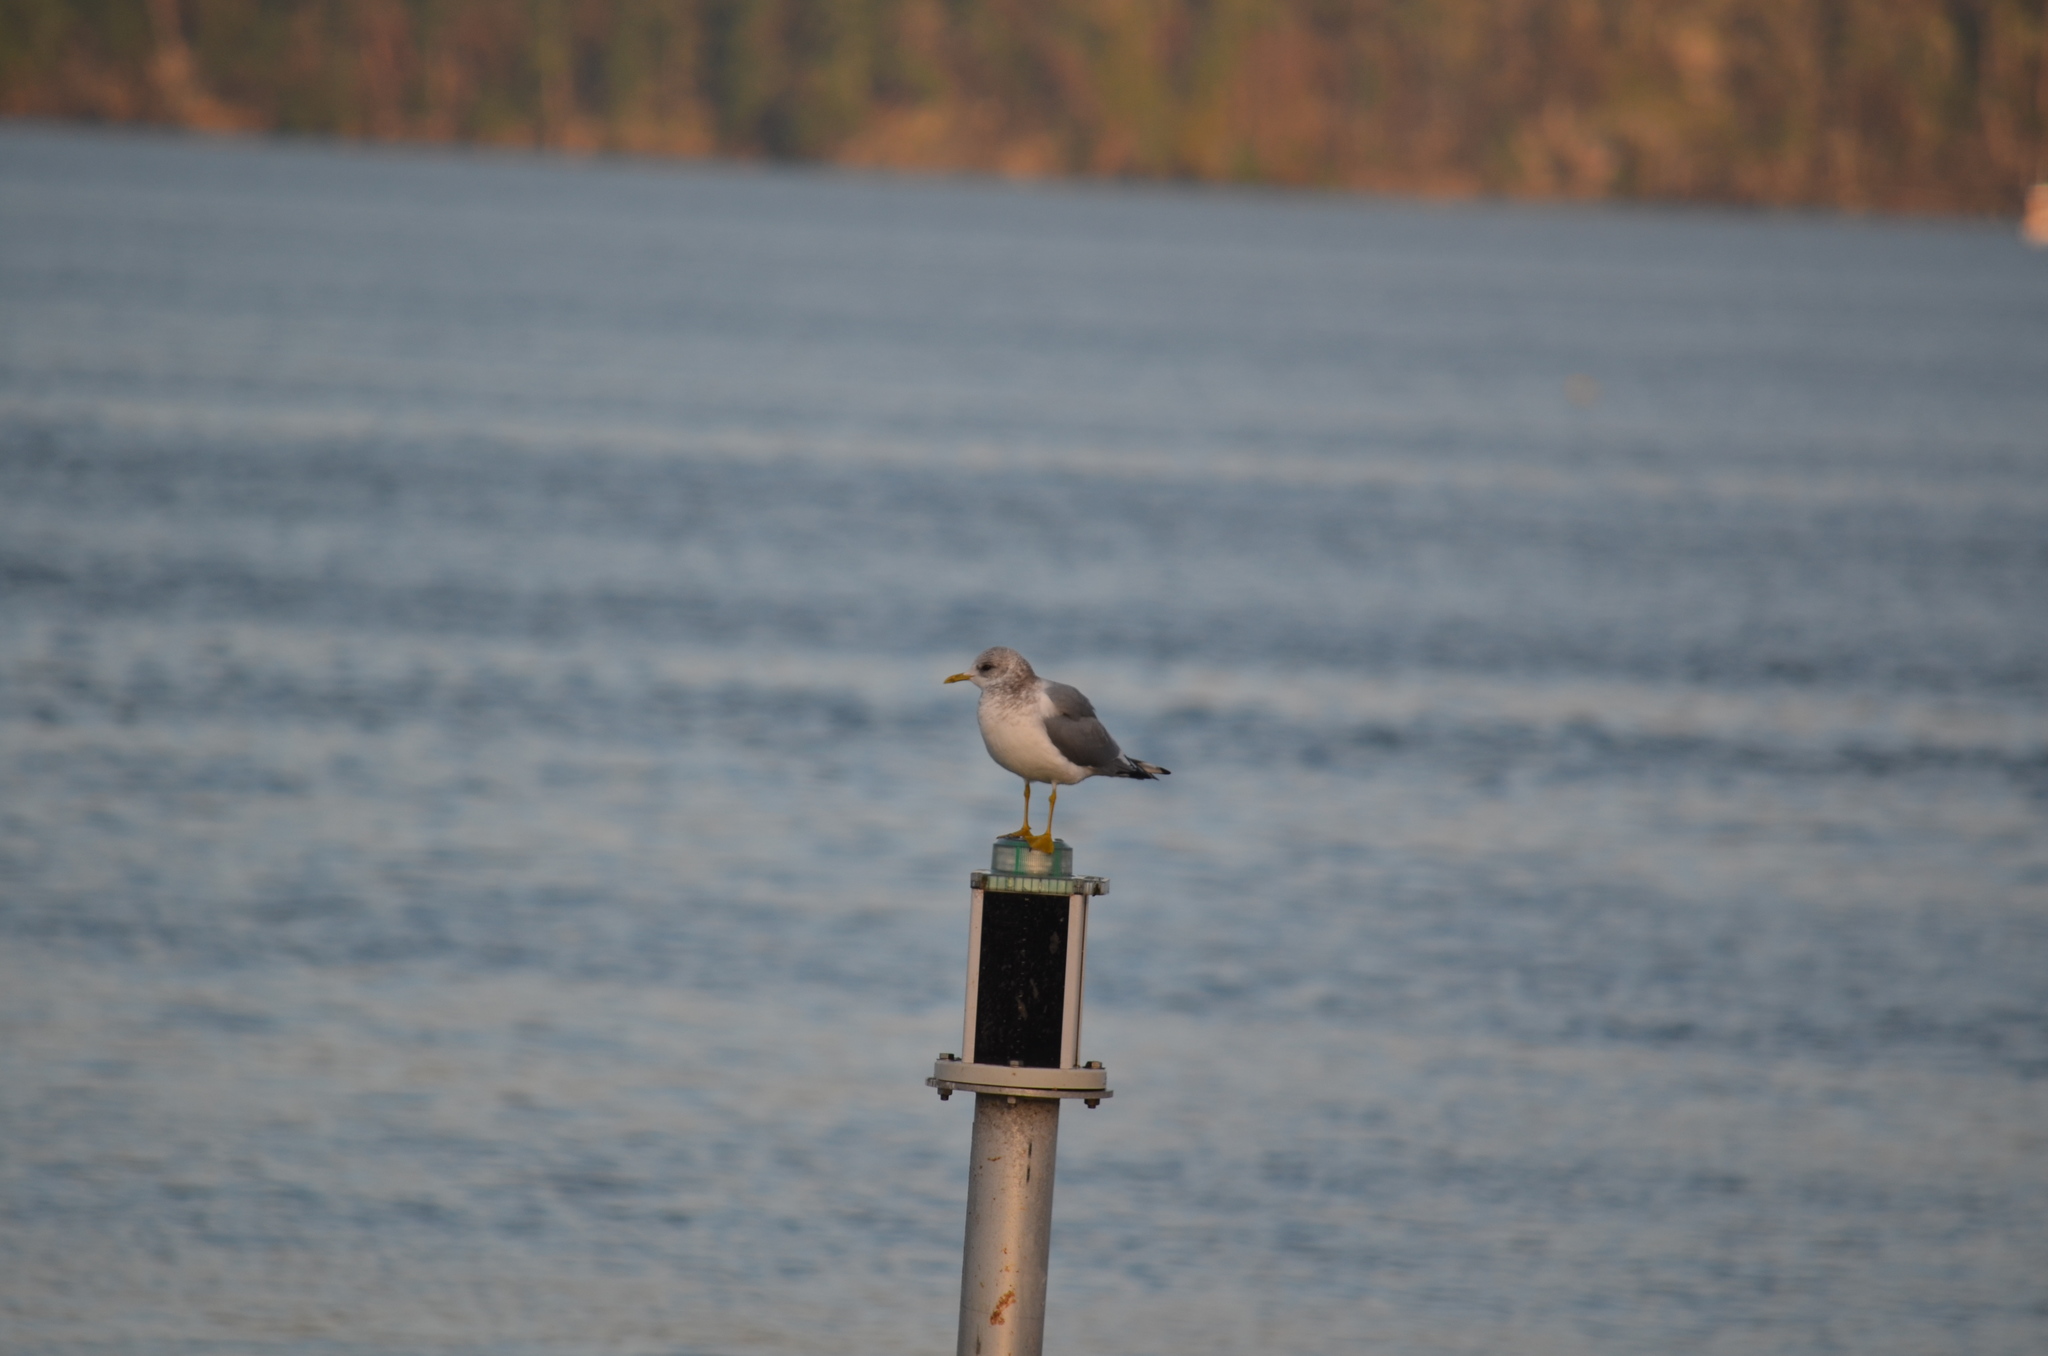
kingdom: Animalia
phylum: Chordata
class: Aves
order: Charadriiformes
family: Laridae
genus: Larus
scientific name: Larus brachyrhynchus
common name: Short-billed gull
